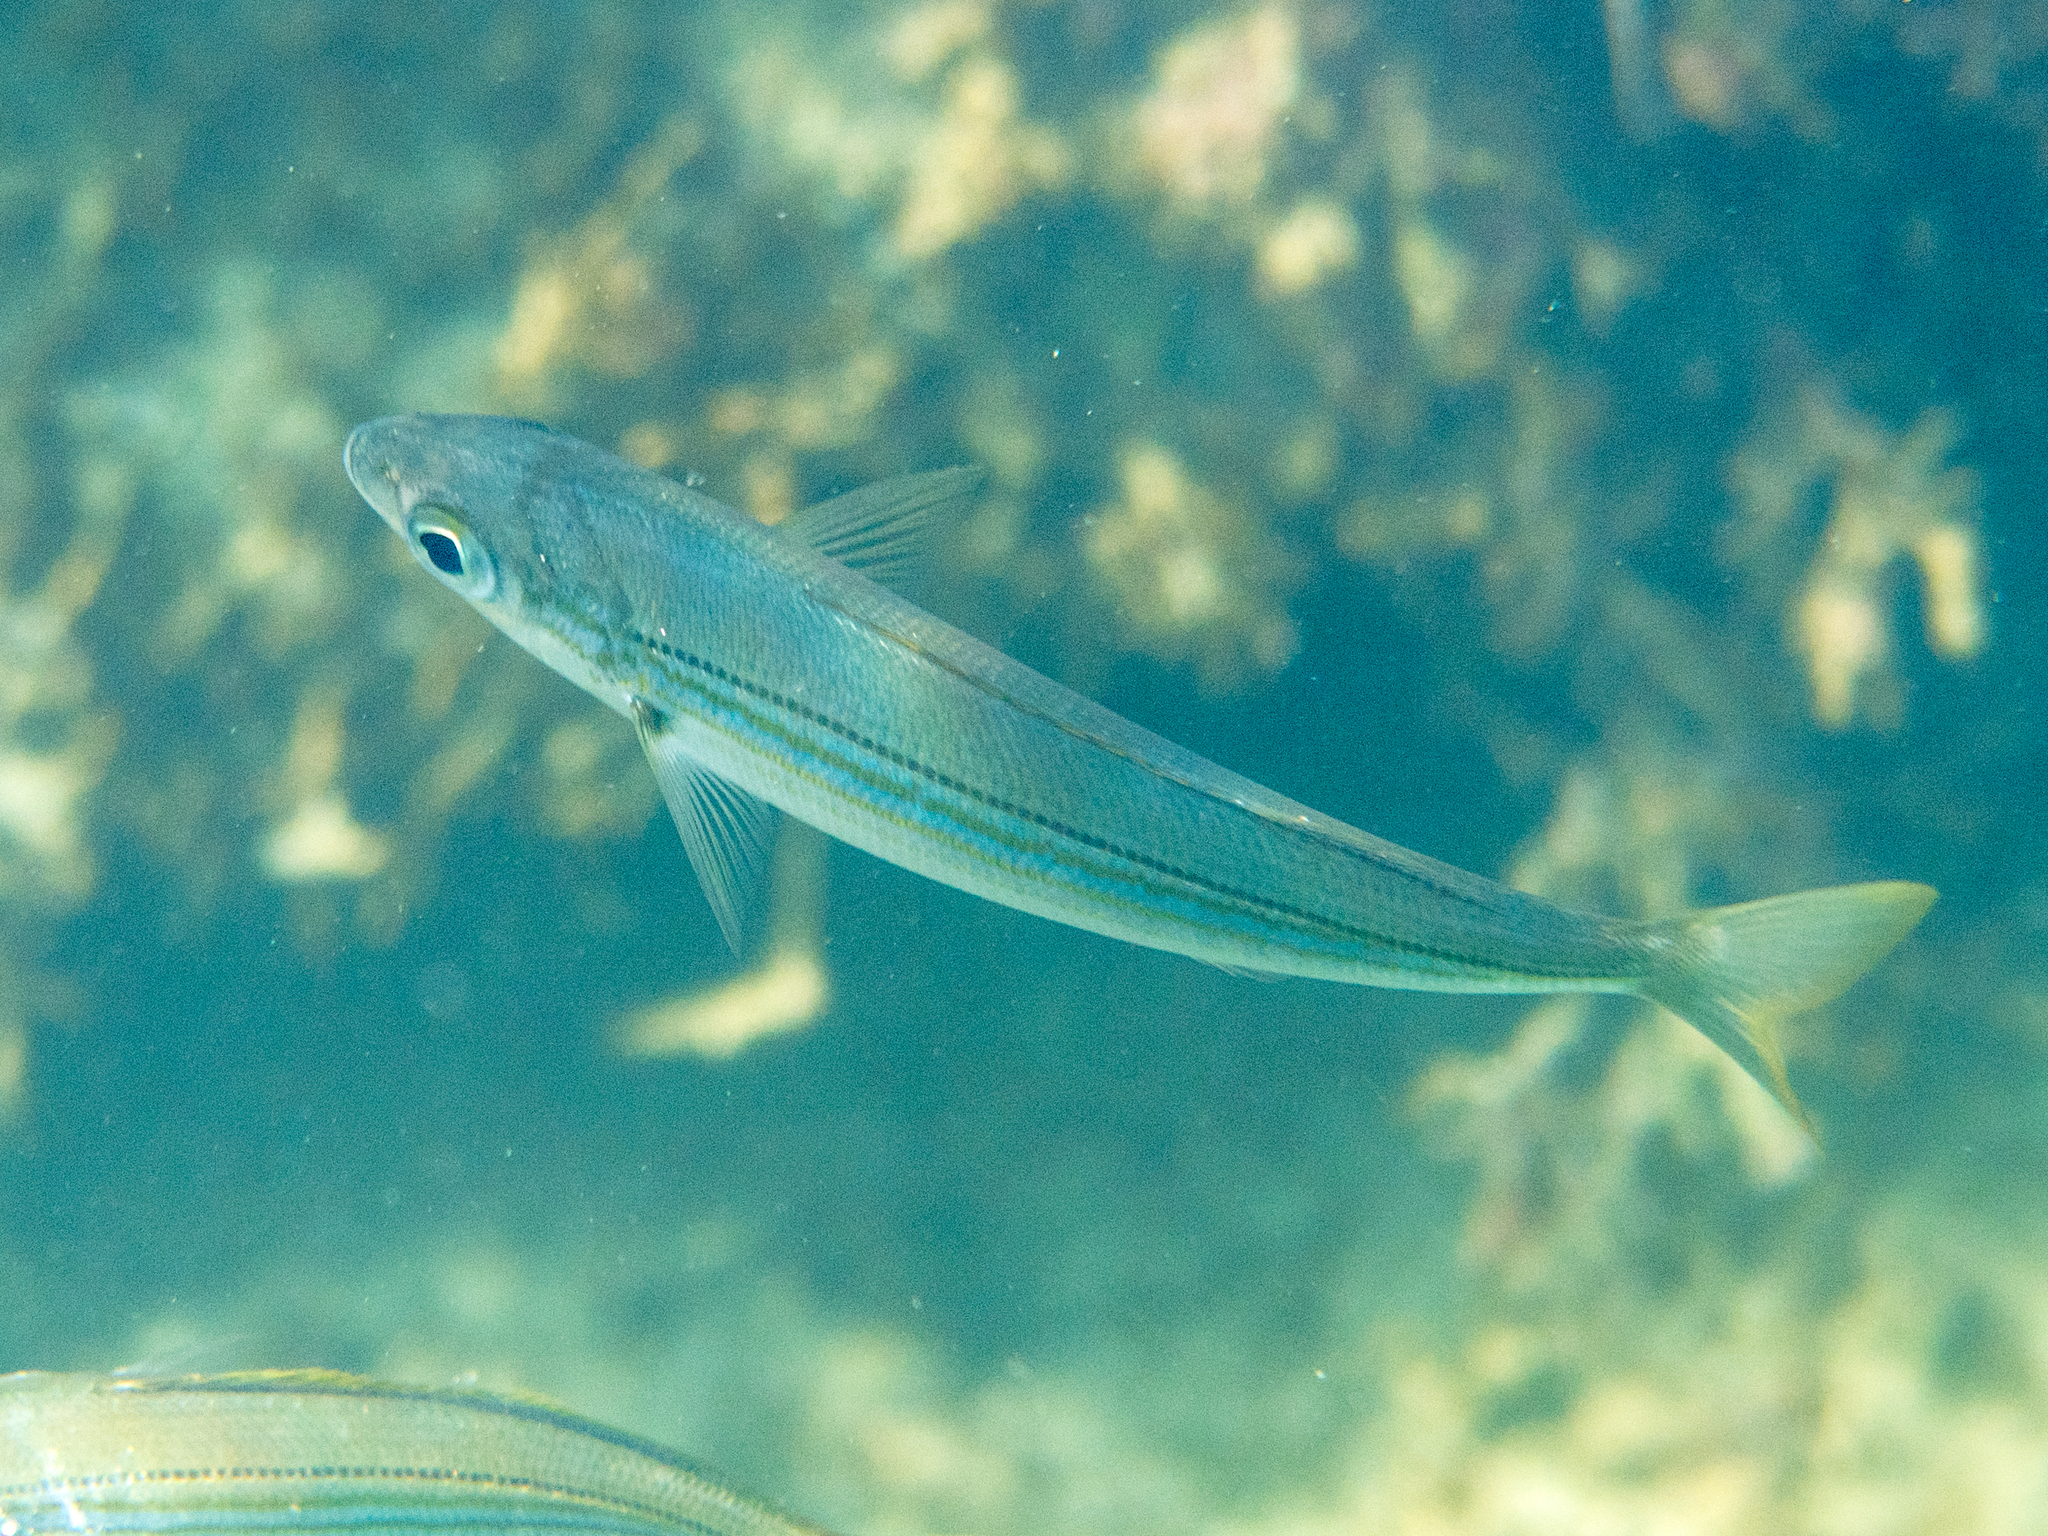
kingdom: Animalia
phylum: Chordata
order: Perciformes
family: Sparidae
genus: Boops
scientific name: Boops boops
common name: Bogue
